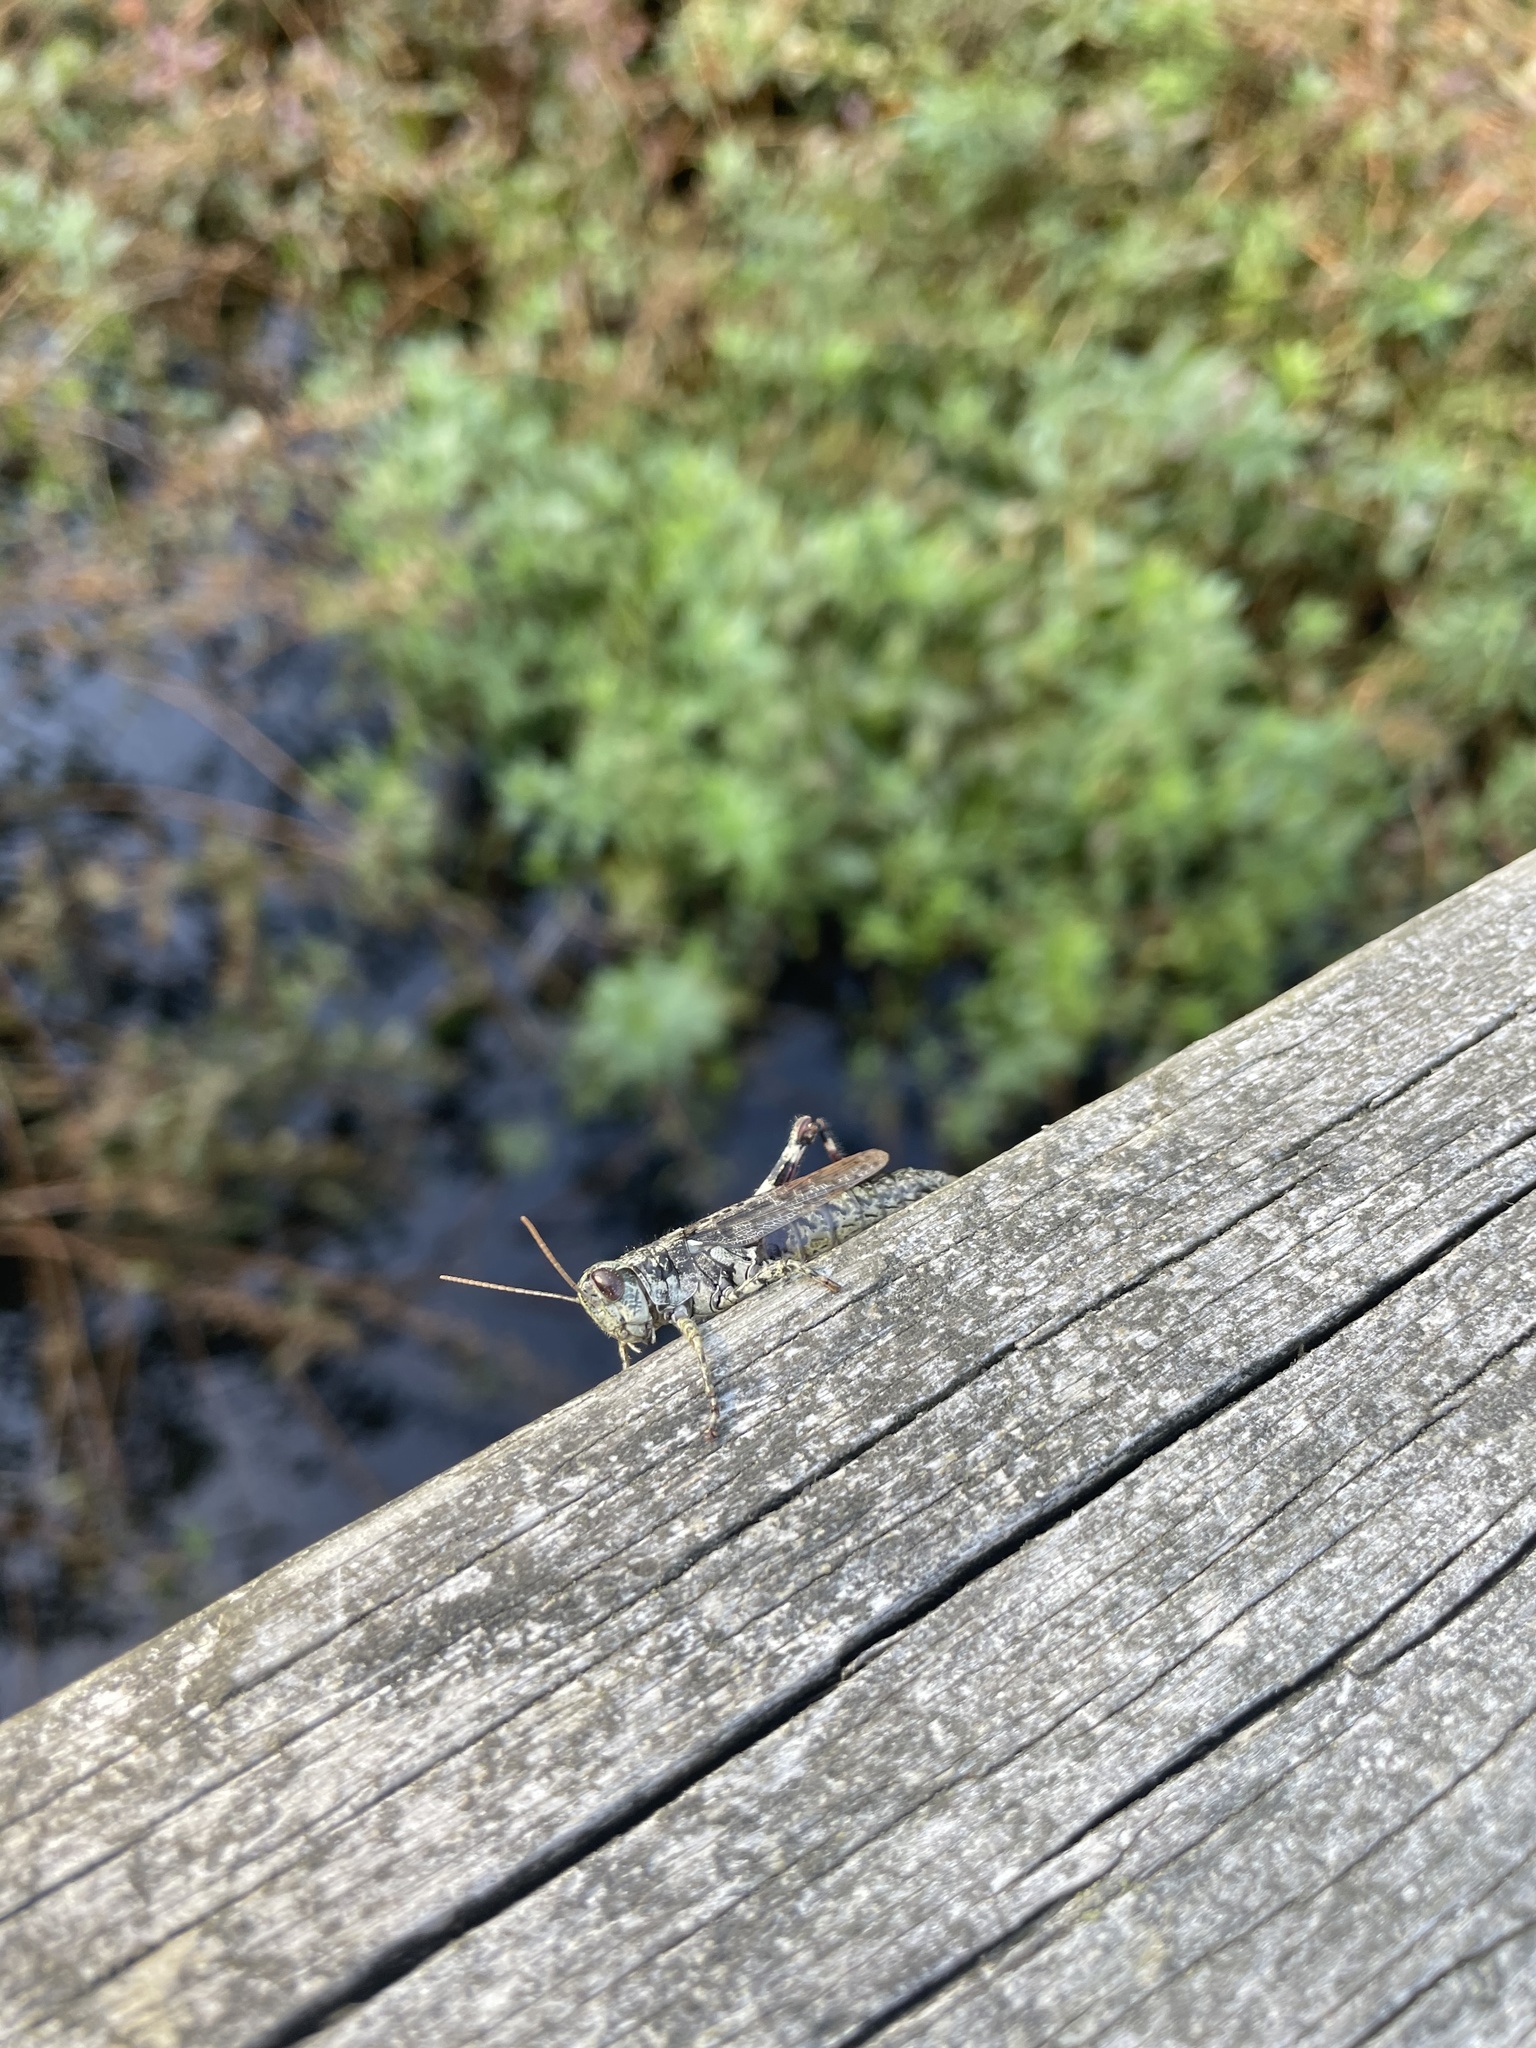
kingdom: Animalia
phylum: Arthropoda
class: Insecta
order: Orthoptera
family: Acrididae
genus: Melanoplus
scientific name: Melanoplus punctulatus
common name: Pine-tree spur-throat grasshopper
